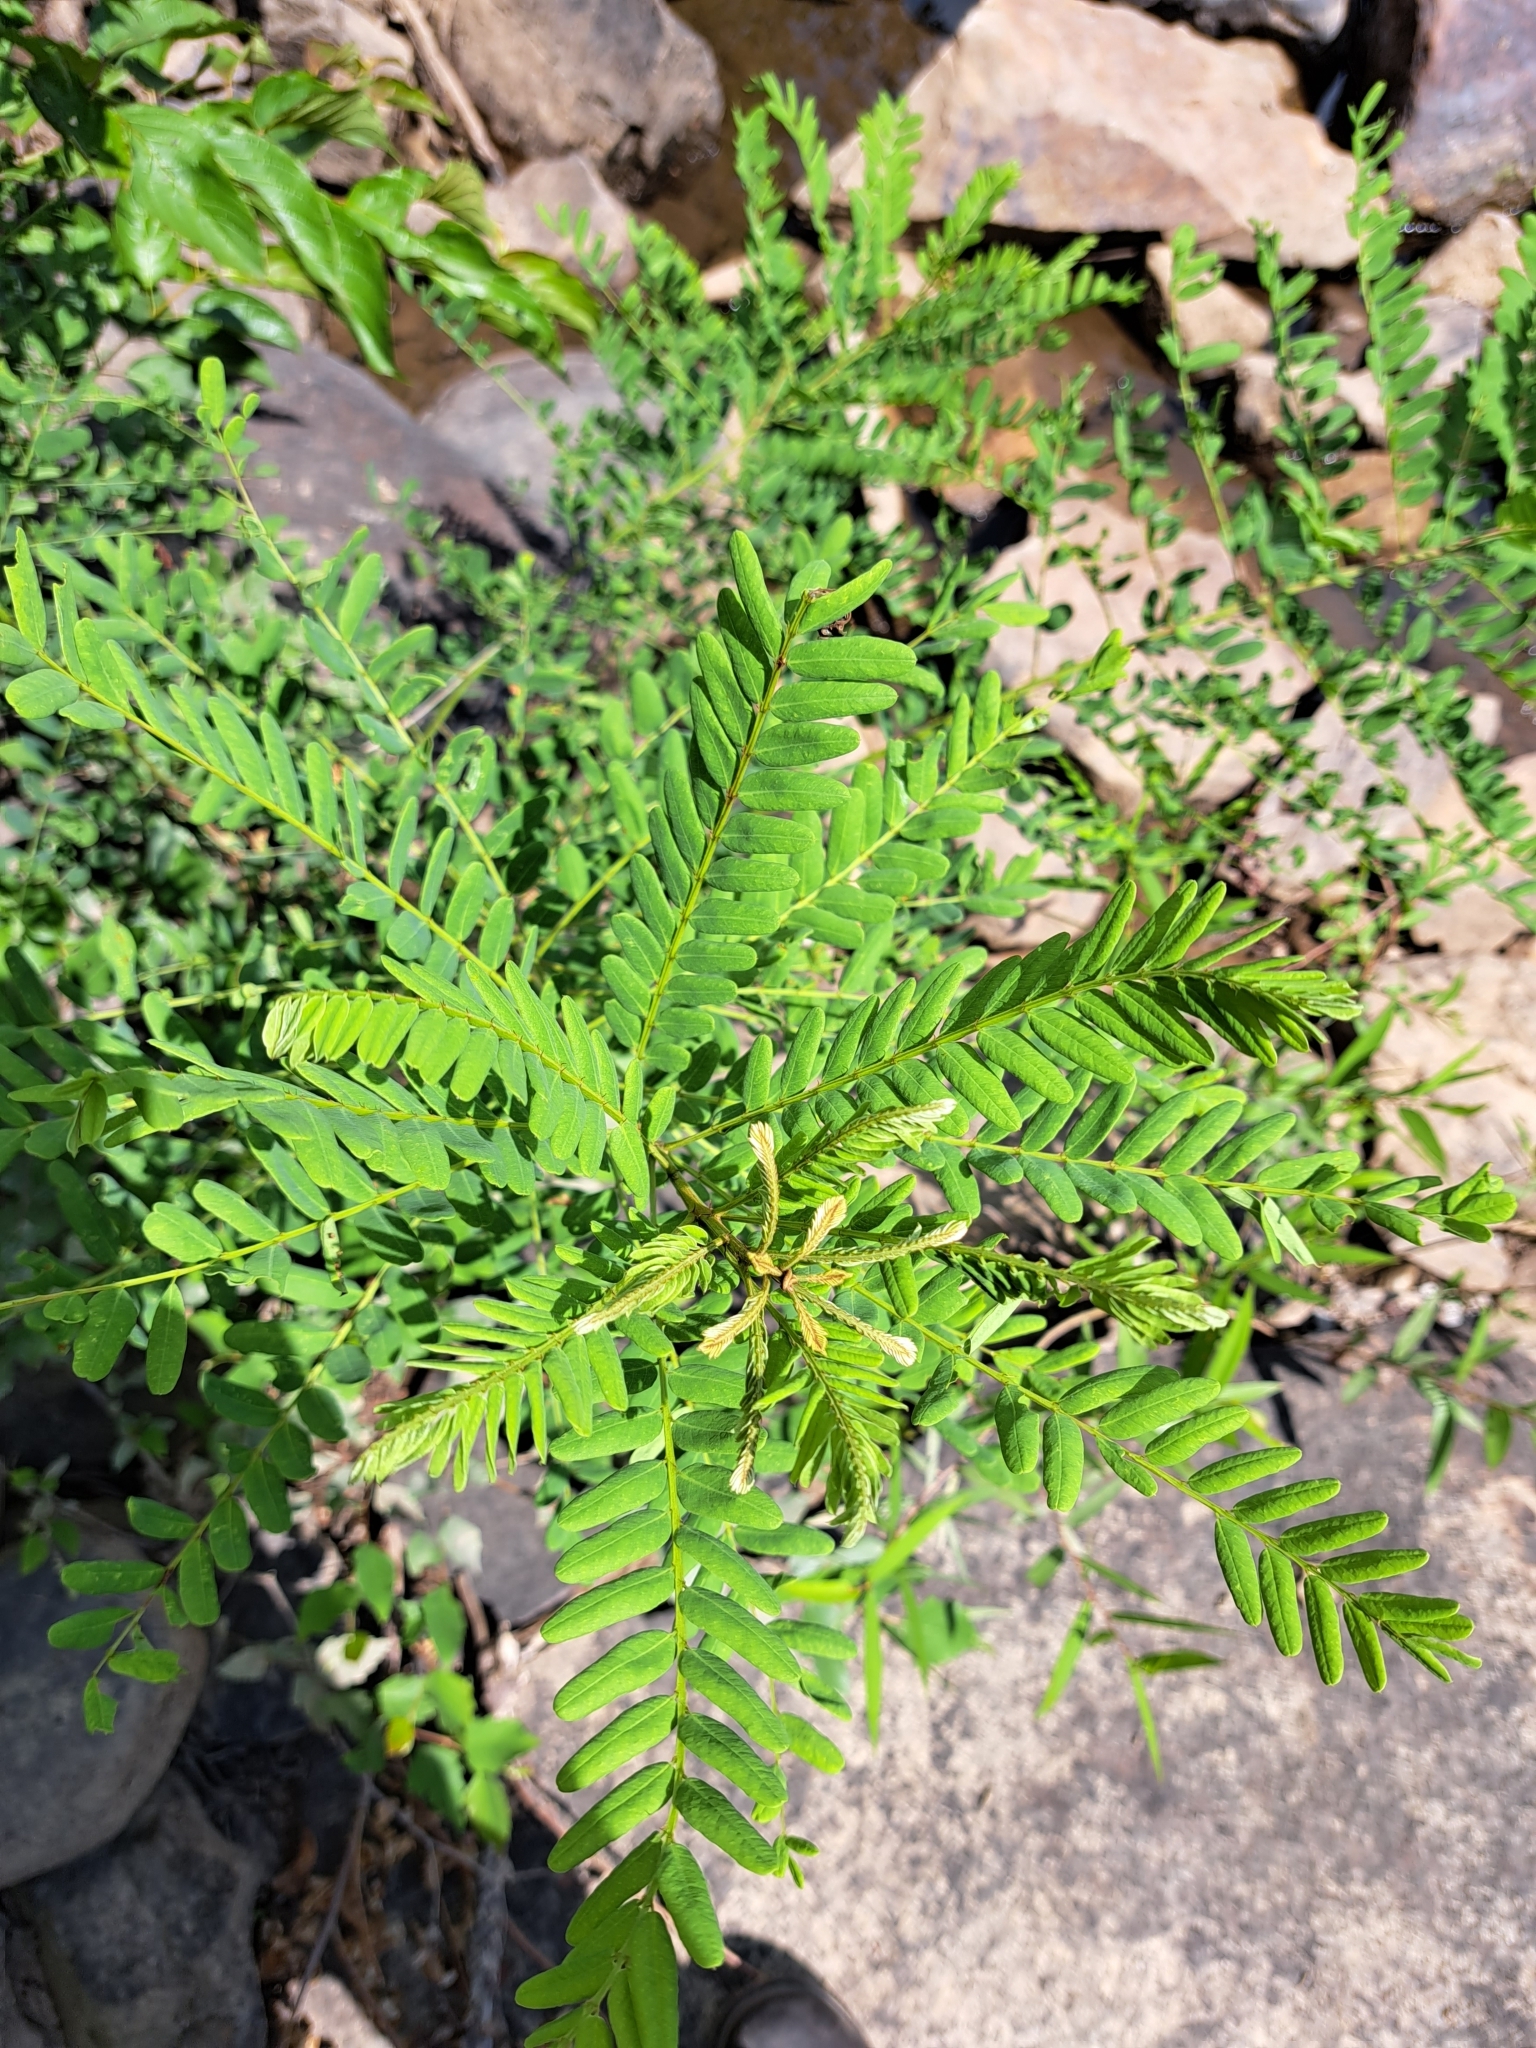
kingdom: Plantae
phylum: Tracheophyta
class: Magnoliopsida
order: Fabales
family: Fabaceae
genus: Amorpha
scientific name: Amorpha fruticosa
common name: False indigo
